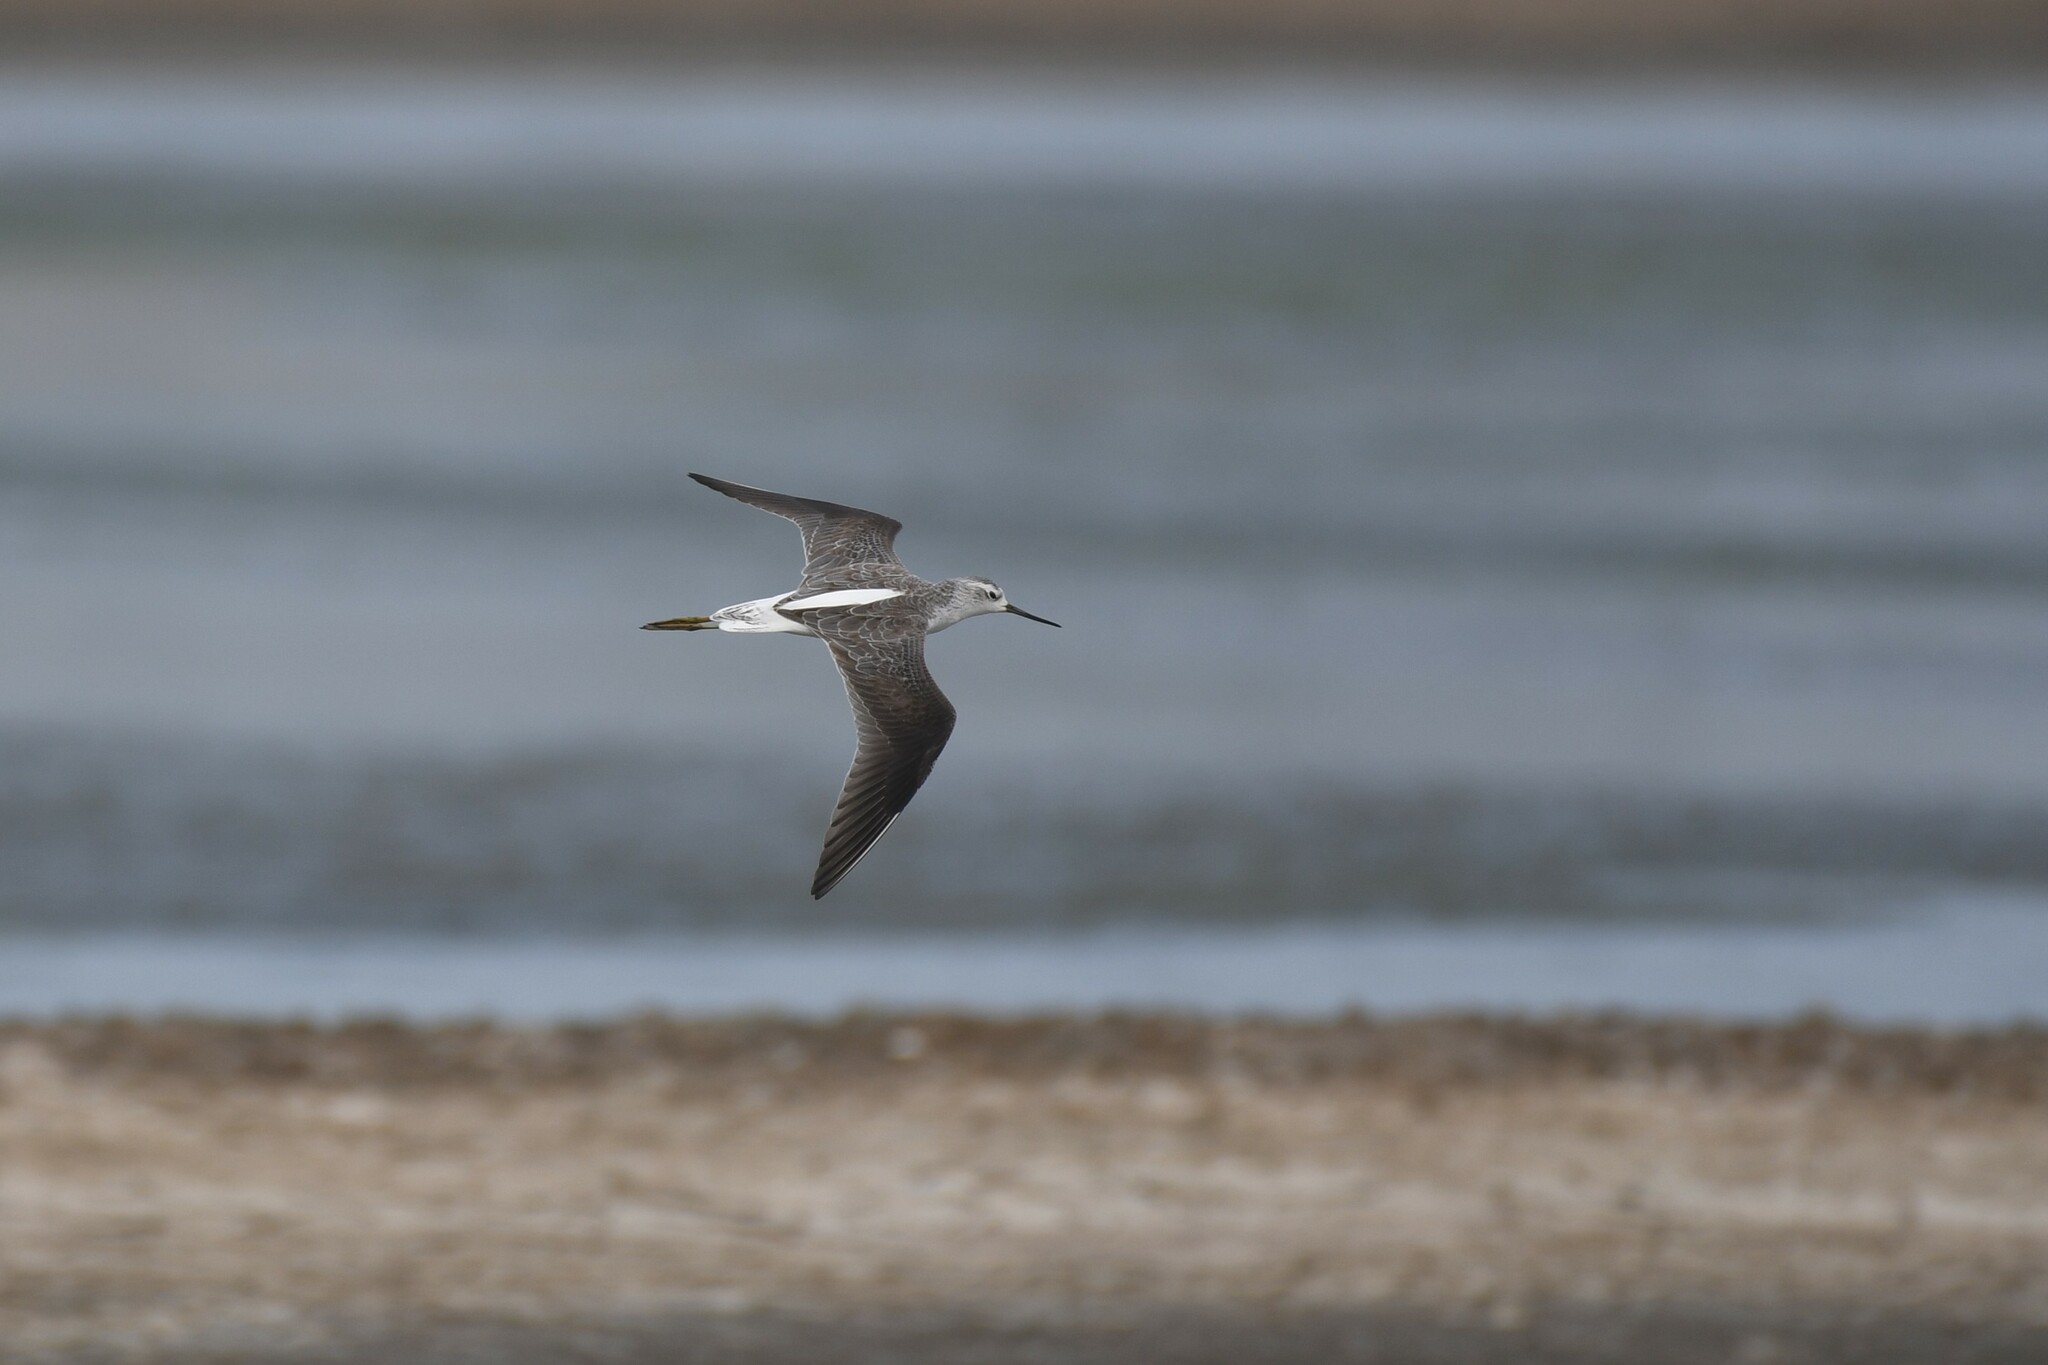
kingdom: Animalia
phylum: Chordata
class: Aves
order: Charadriiformes
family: Scolopacidae
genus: Tringa
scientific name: Tringa stagnatilis
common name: Marsh sandpiper
